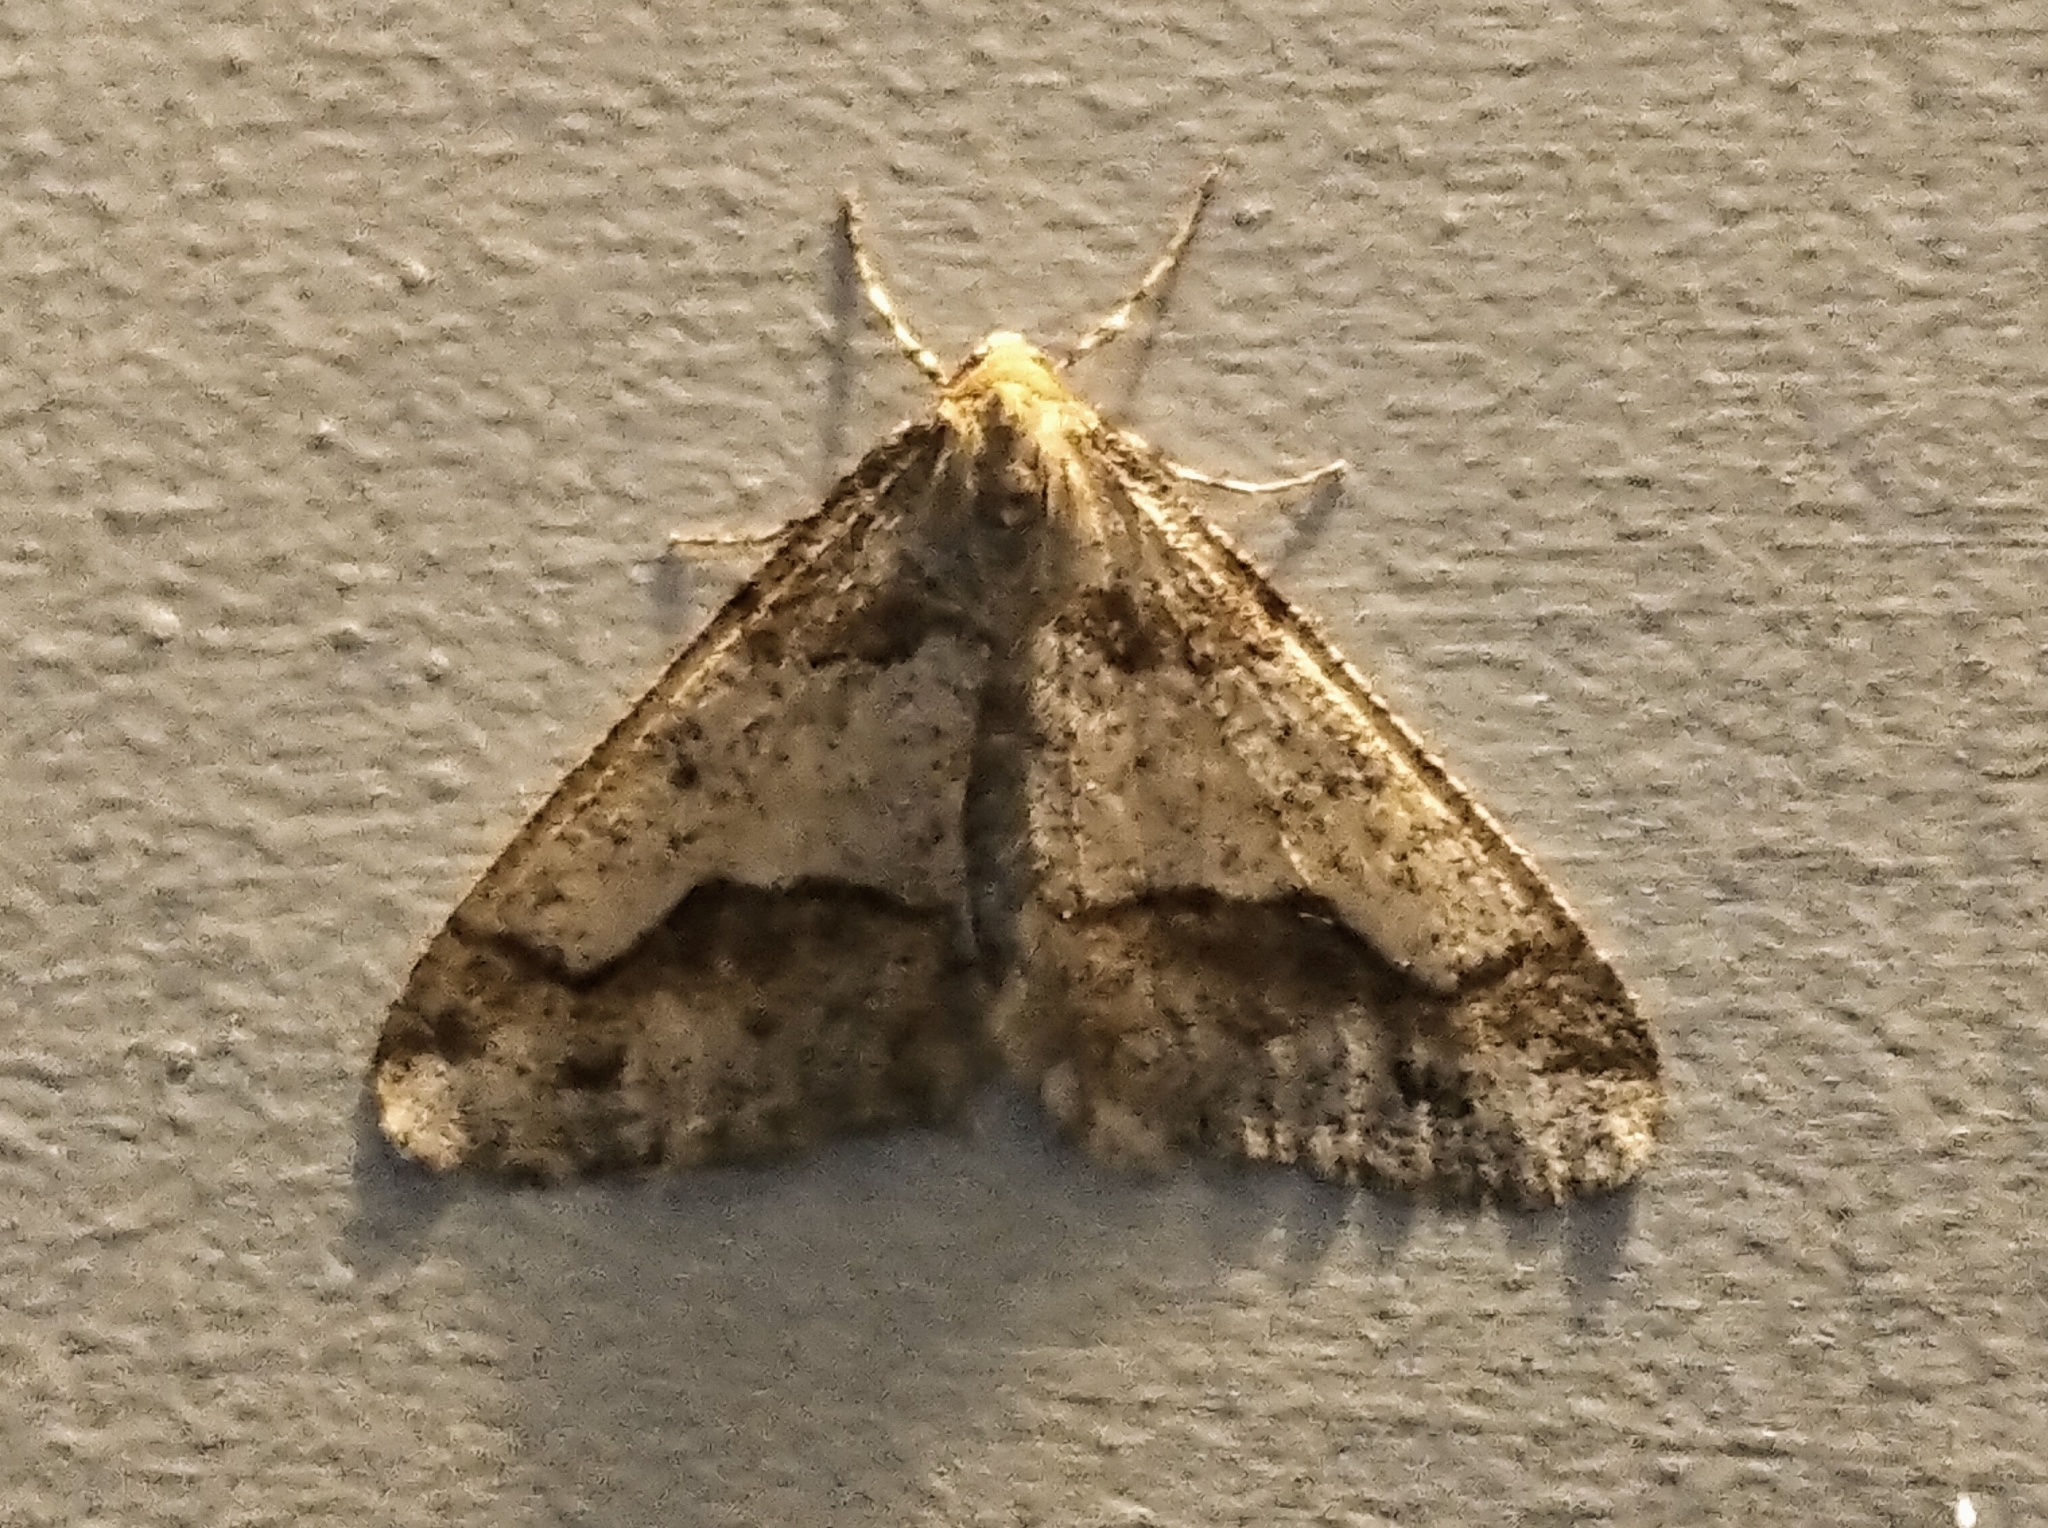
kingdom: Animalia
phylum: Arthropoda
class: Insecta
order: Lepidoptera
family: Geometridae
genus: Erannis
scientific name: Erannis tiliaria
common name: Linden looper
